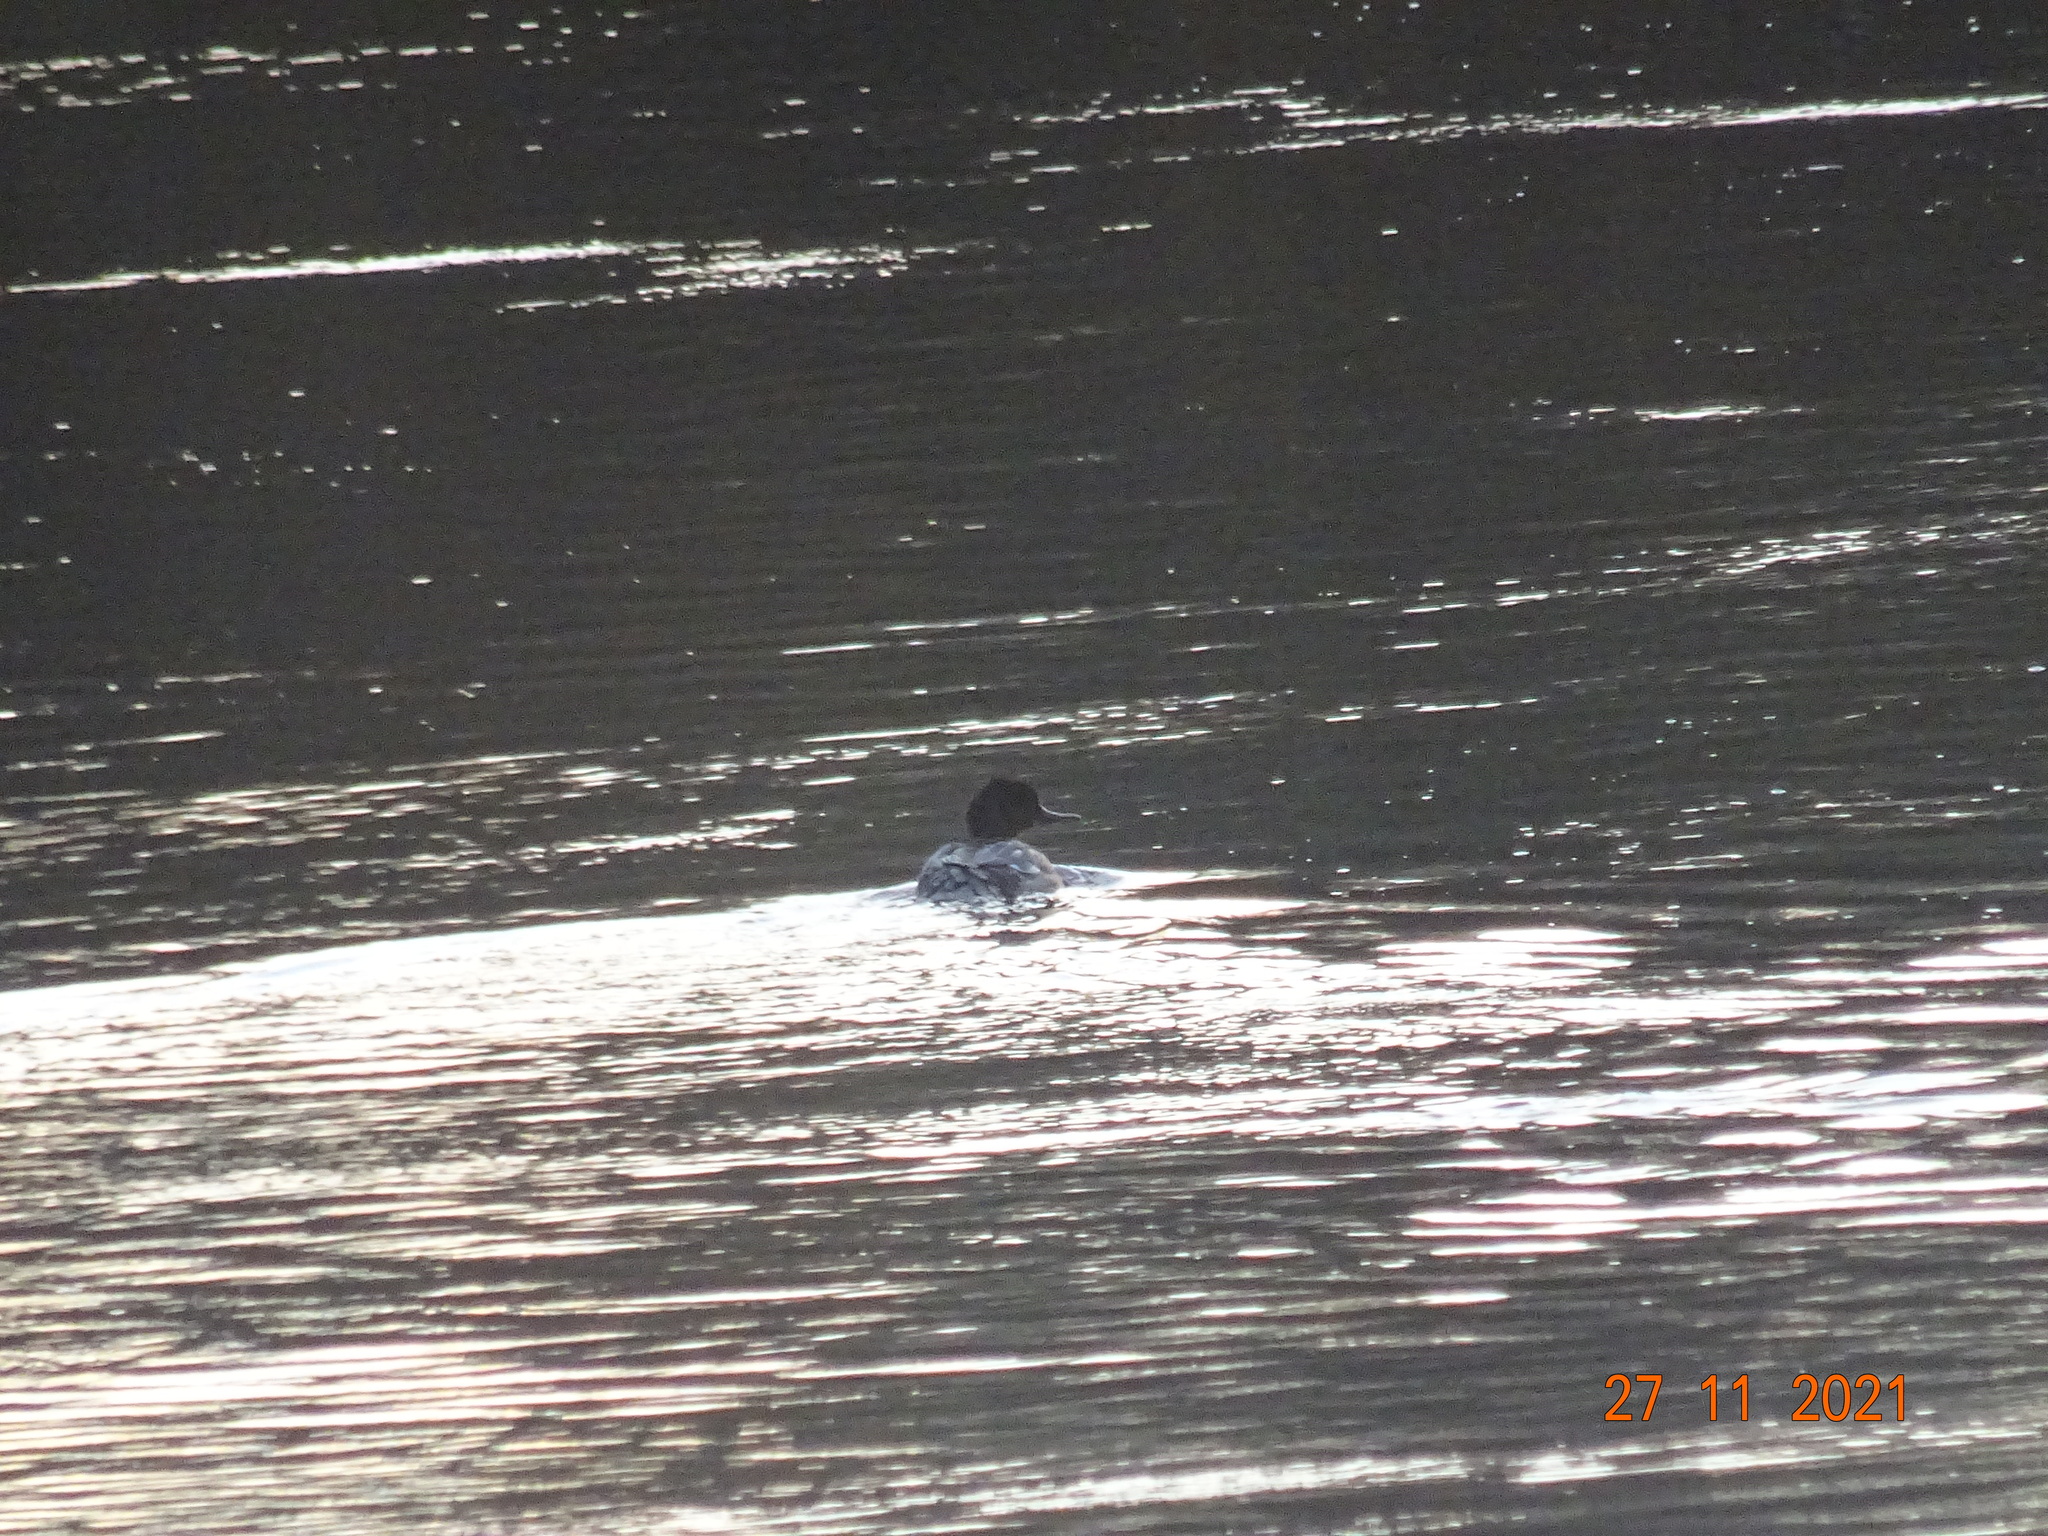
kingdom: Animalia
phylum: Chordata
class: Aves
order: Anseriformes
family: Anatidae
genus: Mergus
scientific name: Mergus merganser
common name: Common merganser
